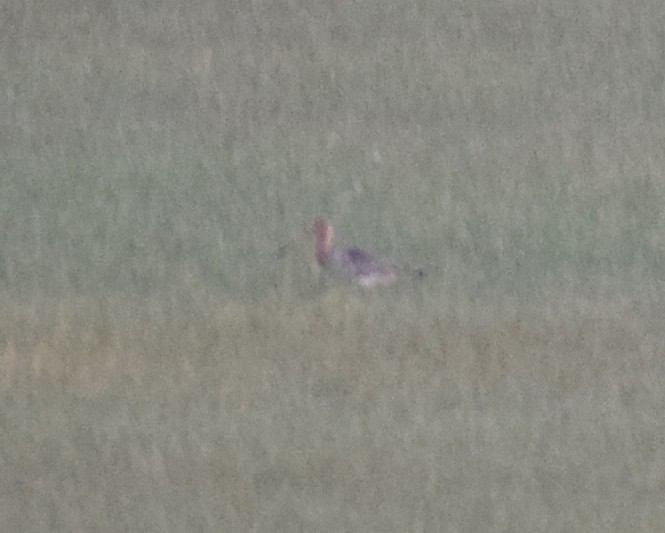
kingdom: Animalia
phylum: Chordata
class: Aves
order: Charadriiformes
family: Scolopacidae
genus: Limosa
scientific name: Limosa limosa
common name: Black-tailed godwit
